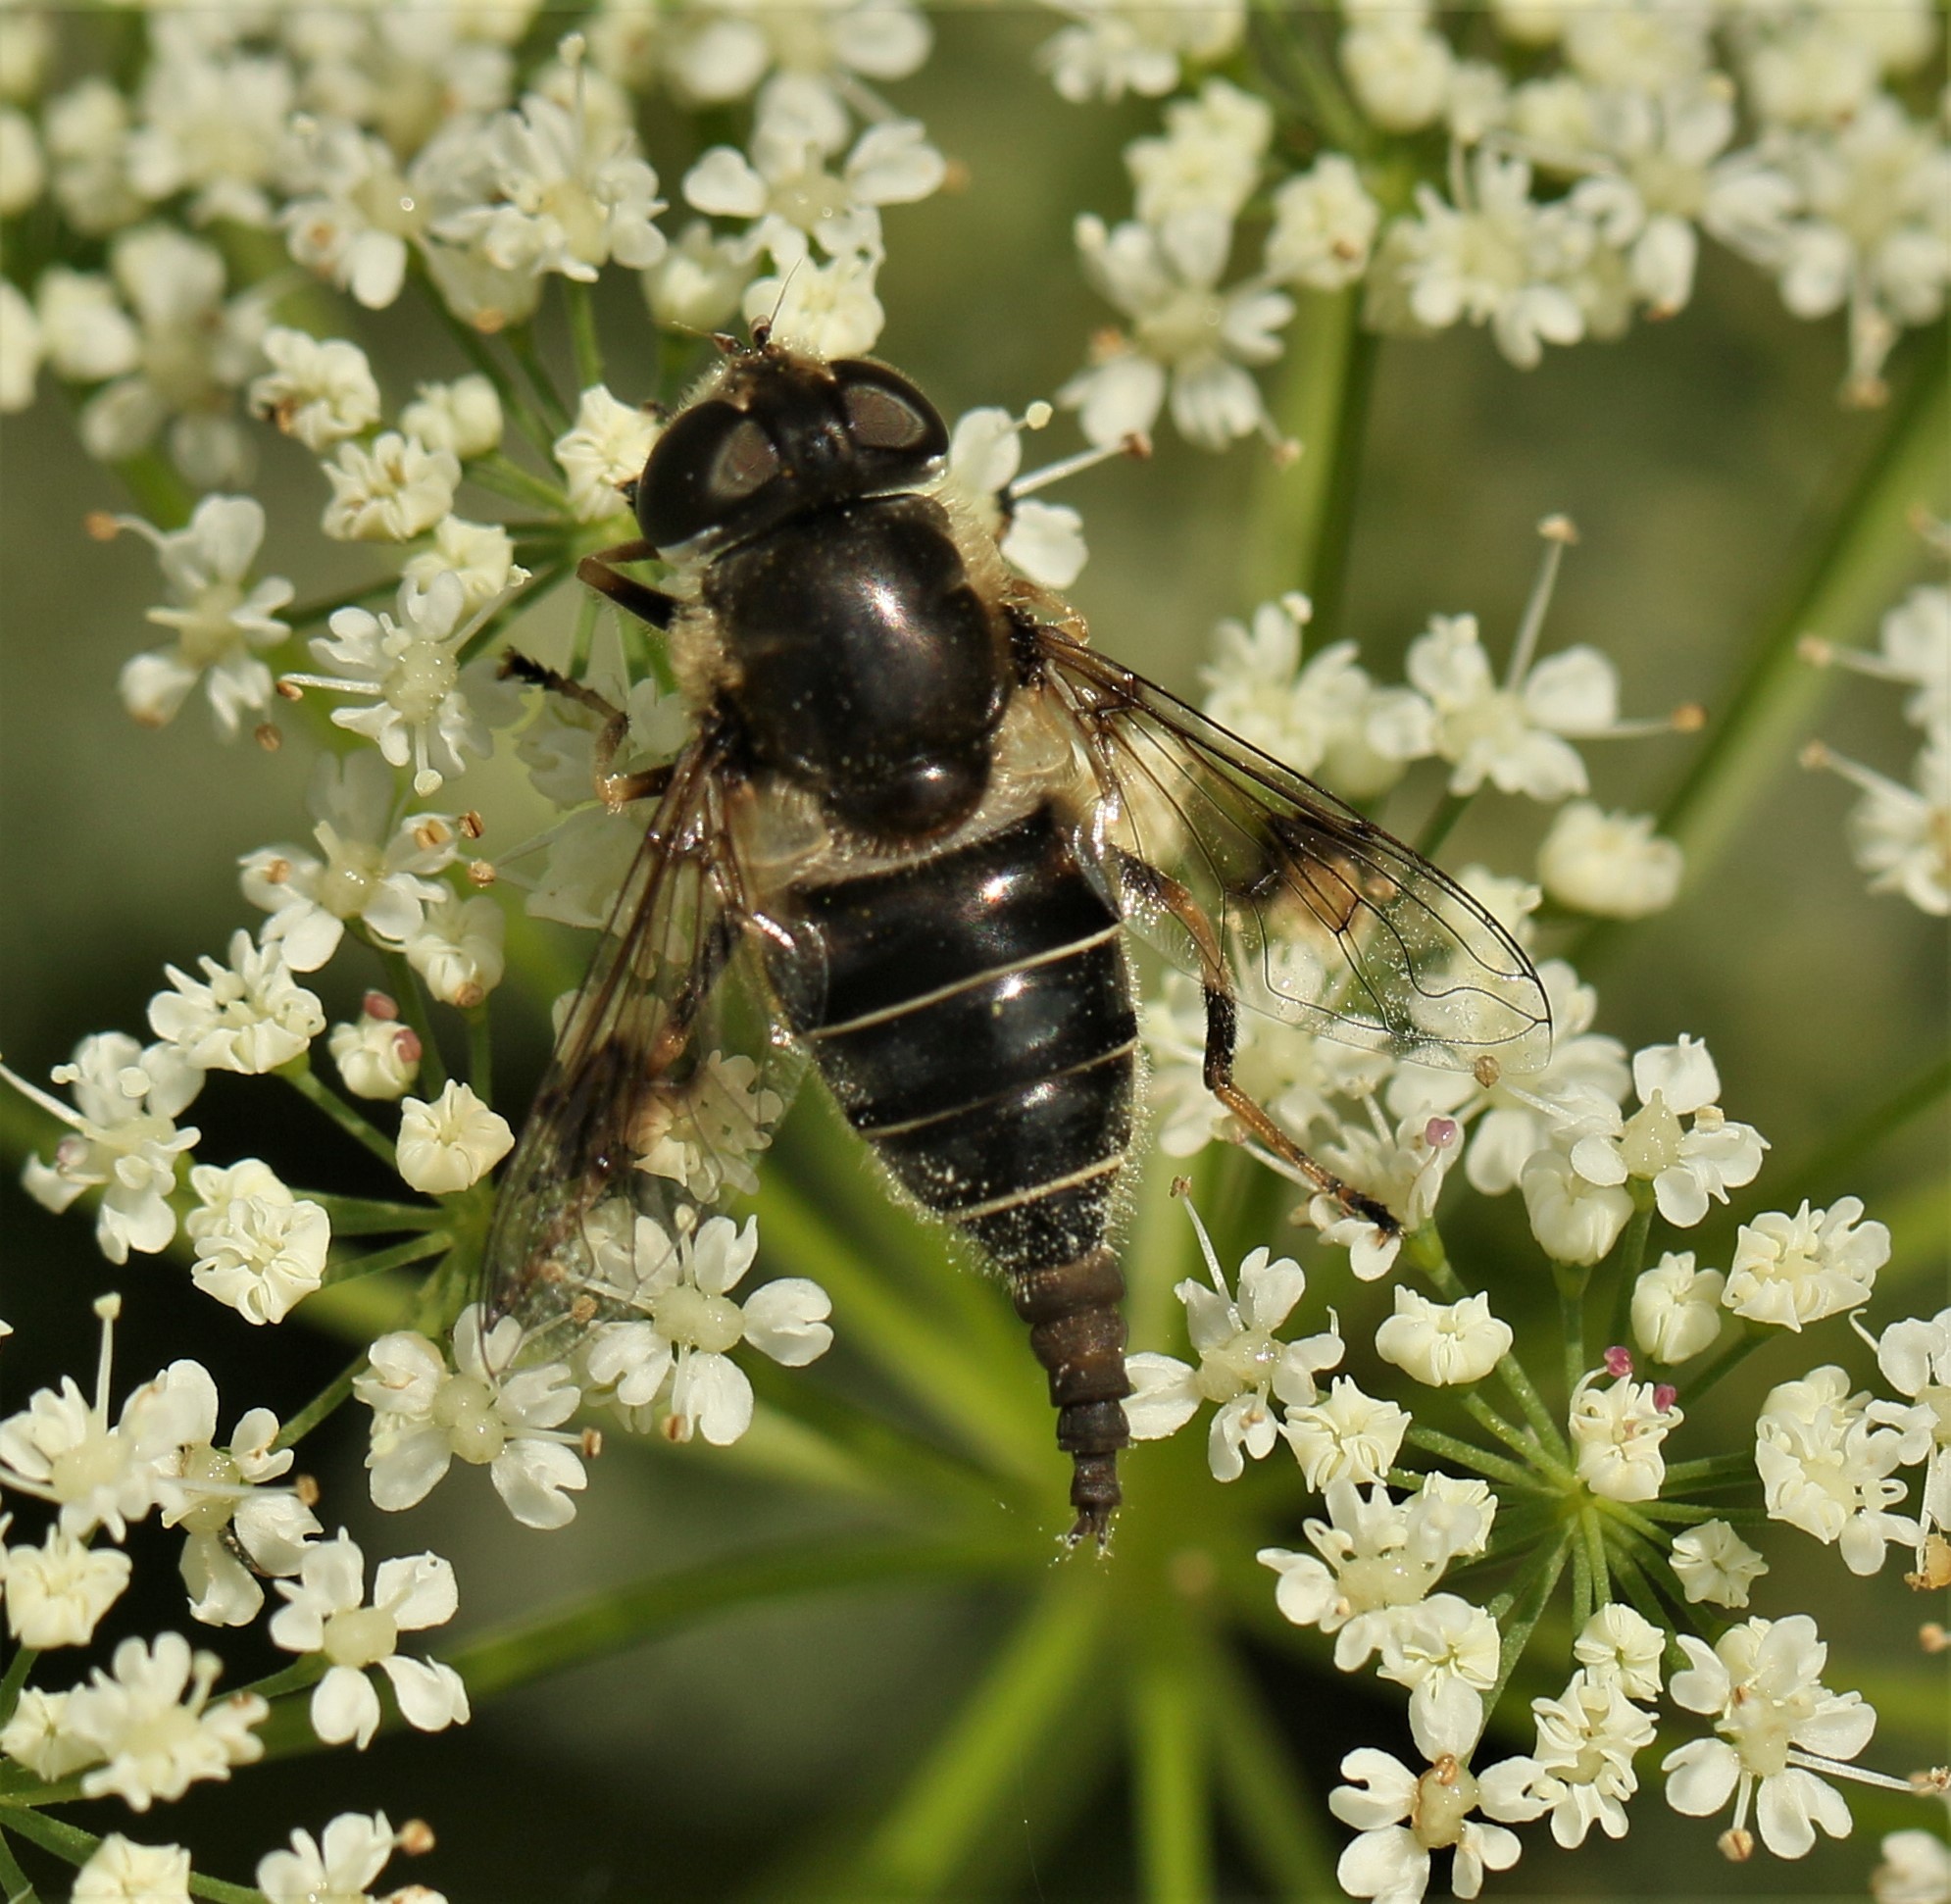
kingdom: Animalia
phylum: Arthropoda
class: Insecta
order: Diptera
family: Syrphidae
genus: Eristalis
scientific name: Eristalis obscura
